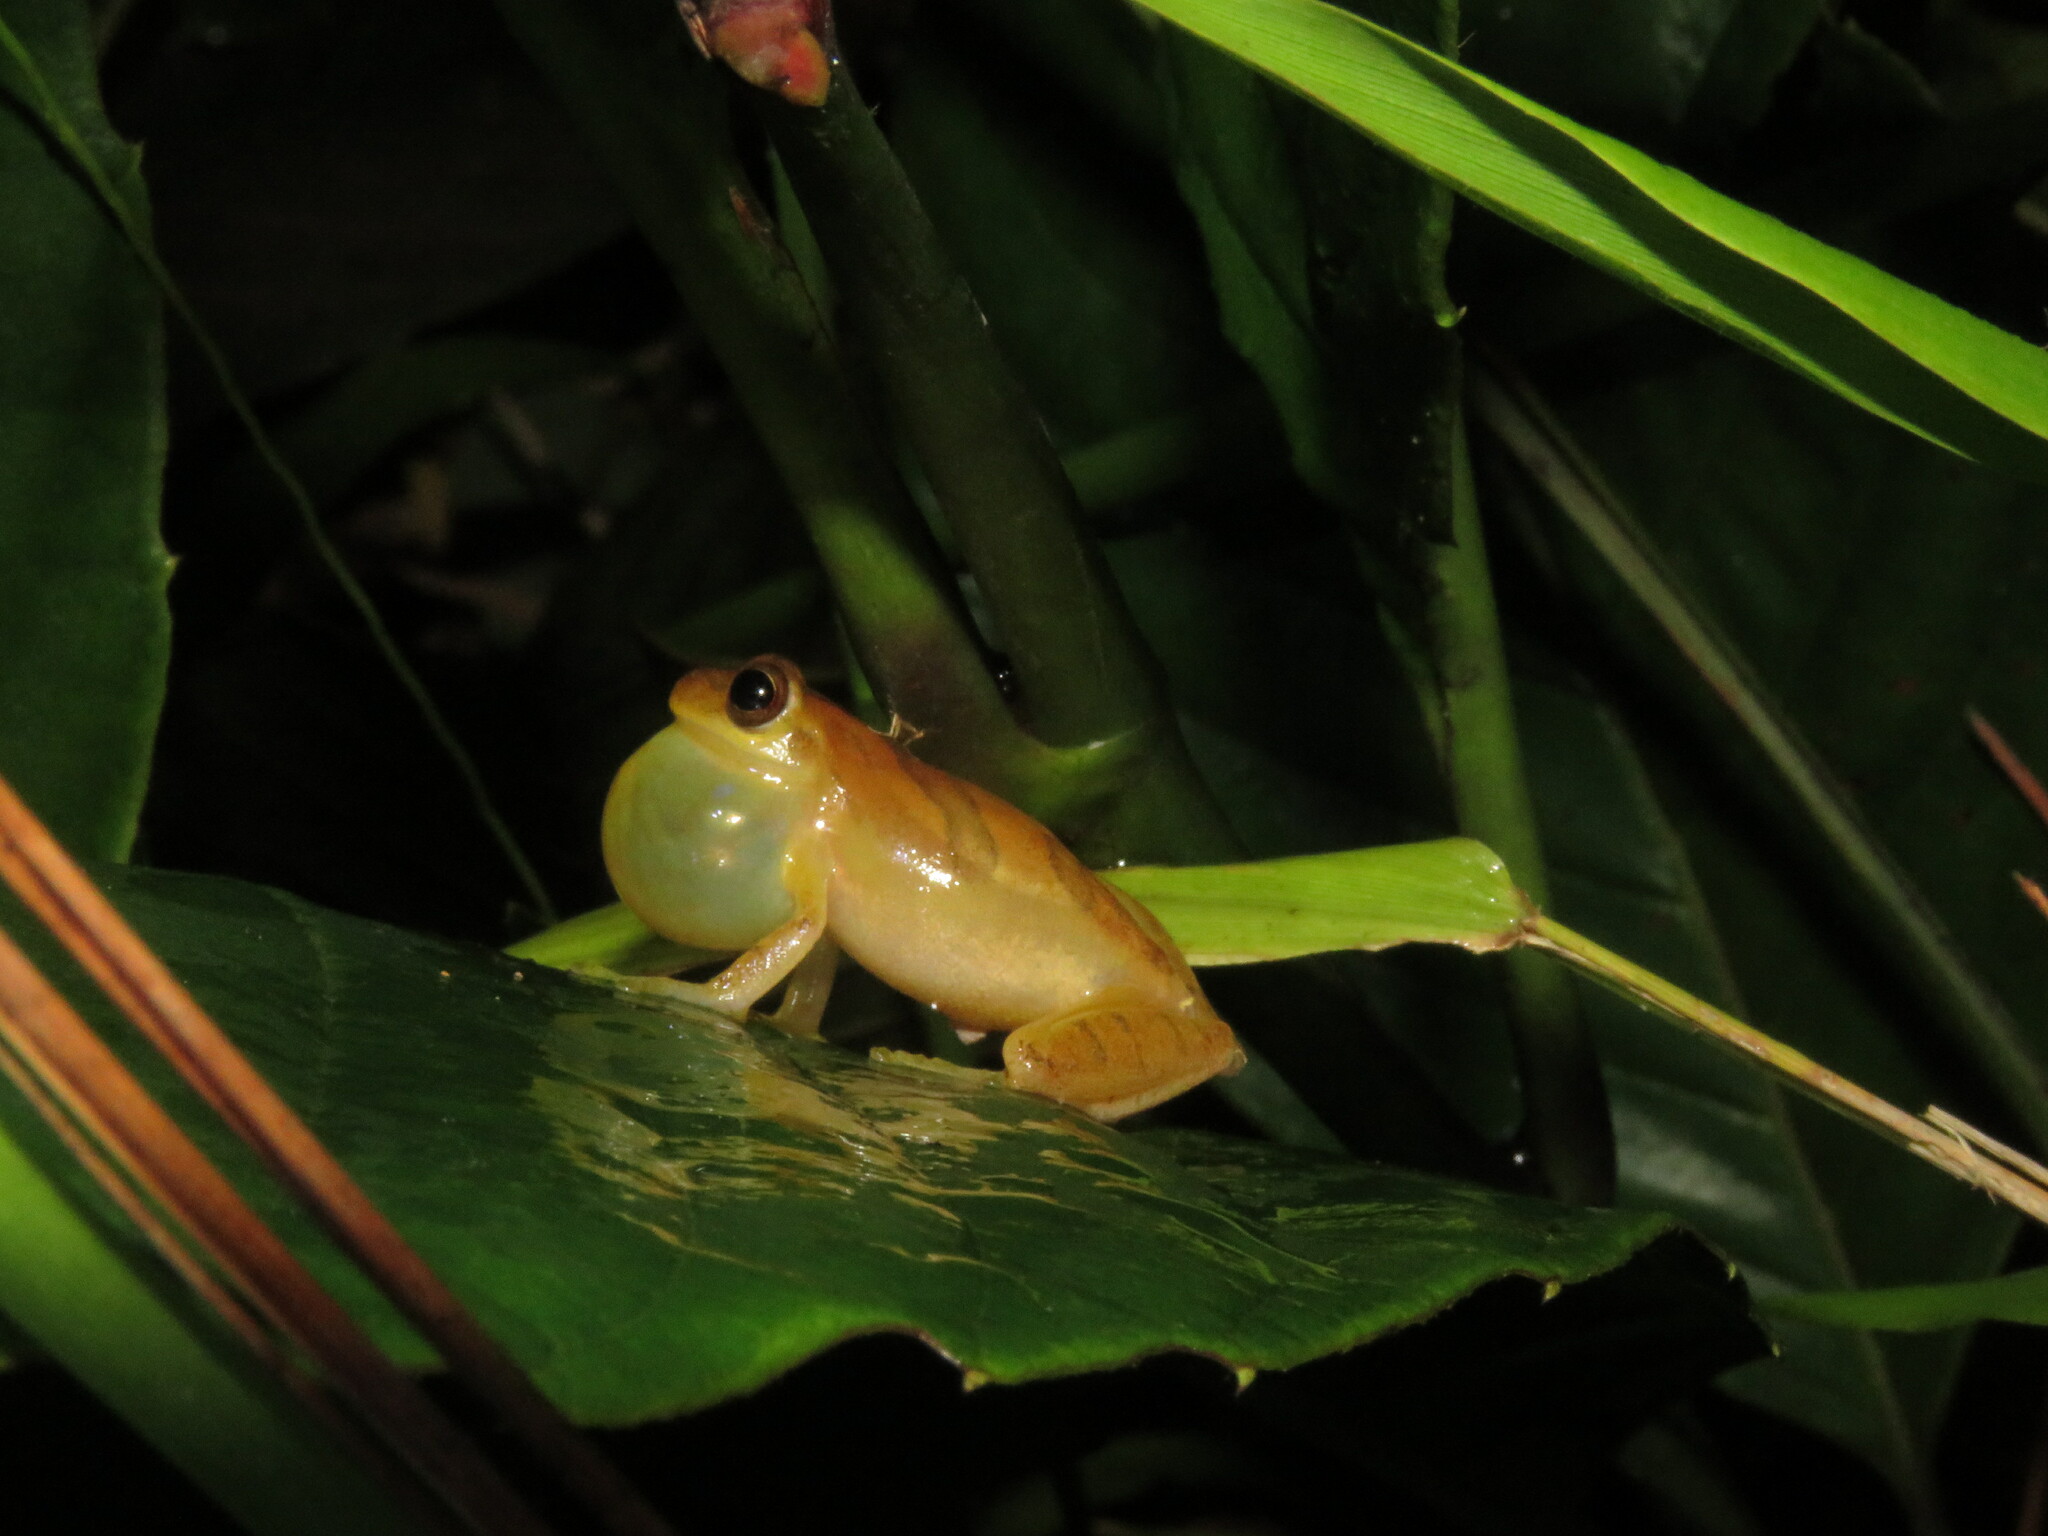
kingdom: Animalia
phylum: Chordata
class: Amphibia
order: Anura
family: Hylidae
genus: Dendropsophus
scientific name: Dendropsophus minutus
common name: Lesser treefrog
